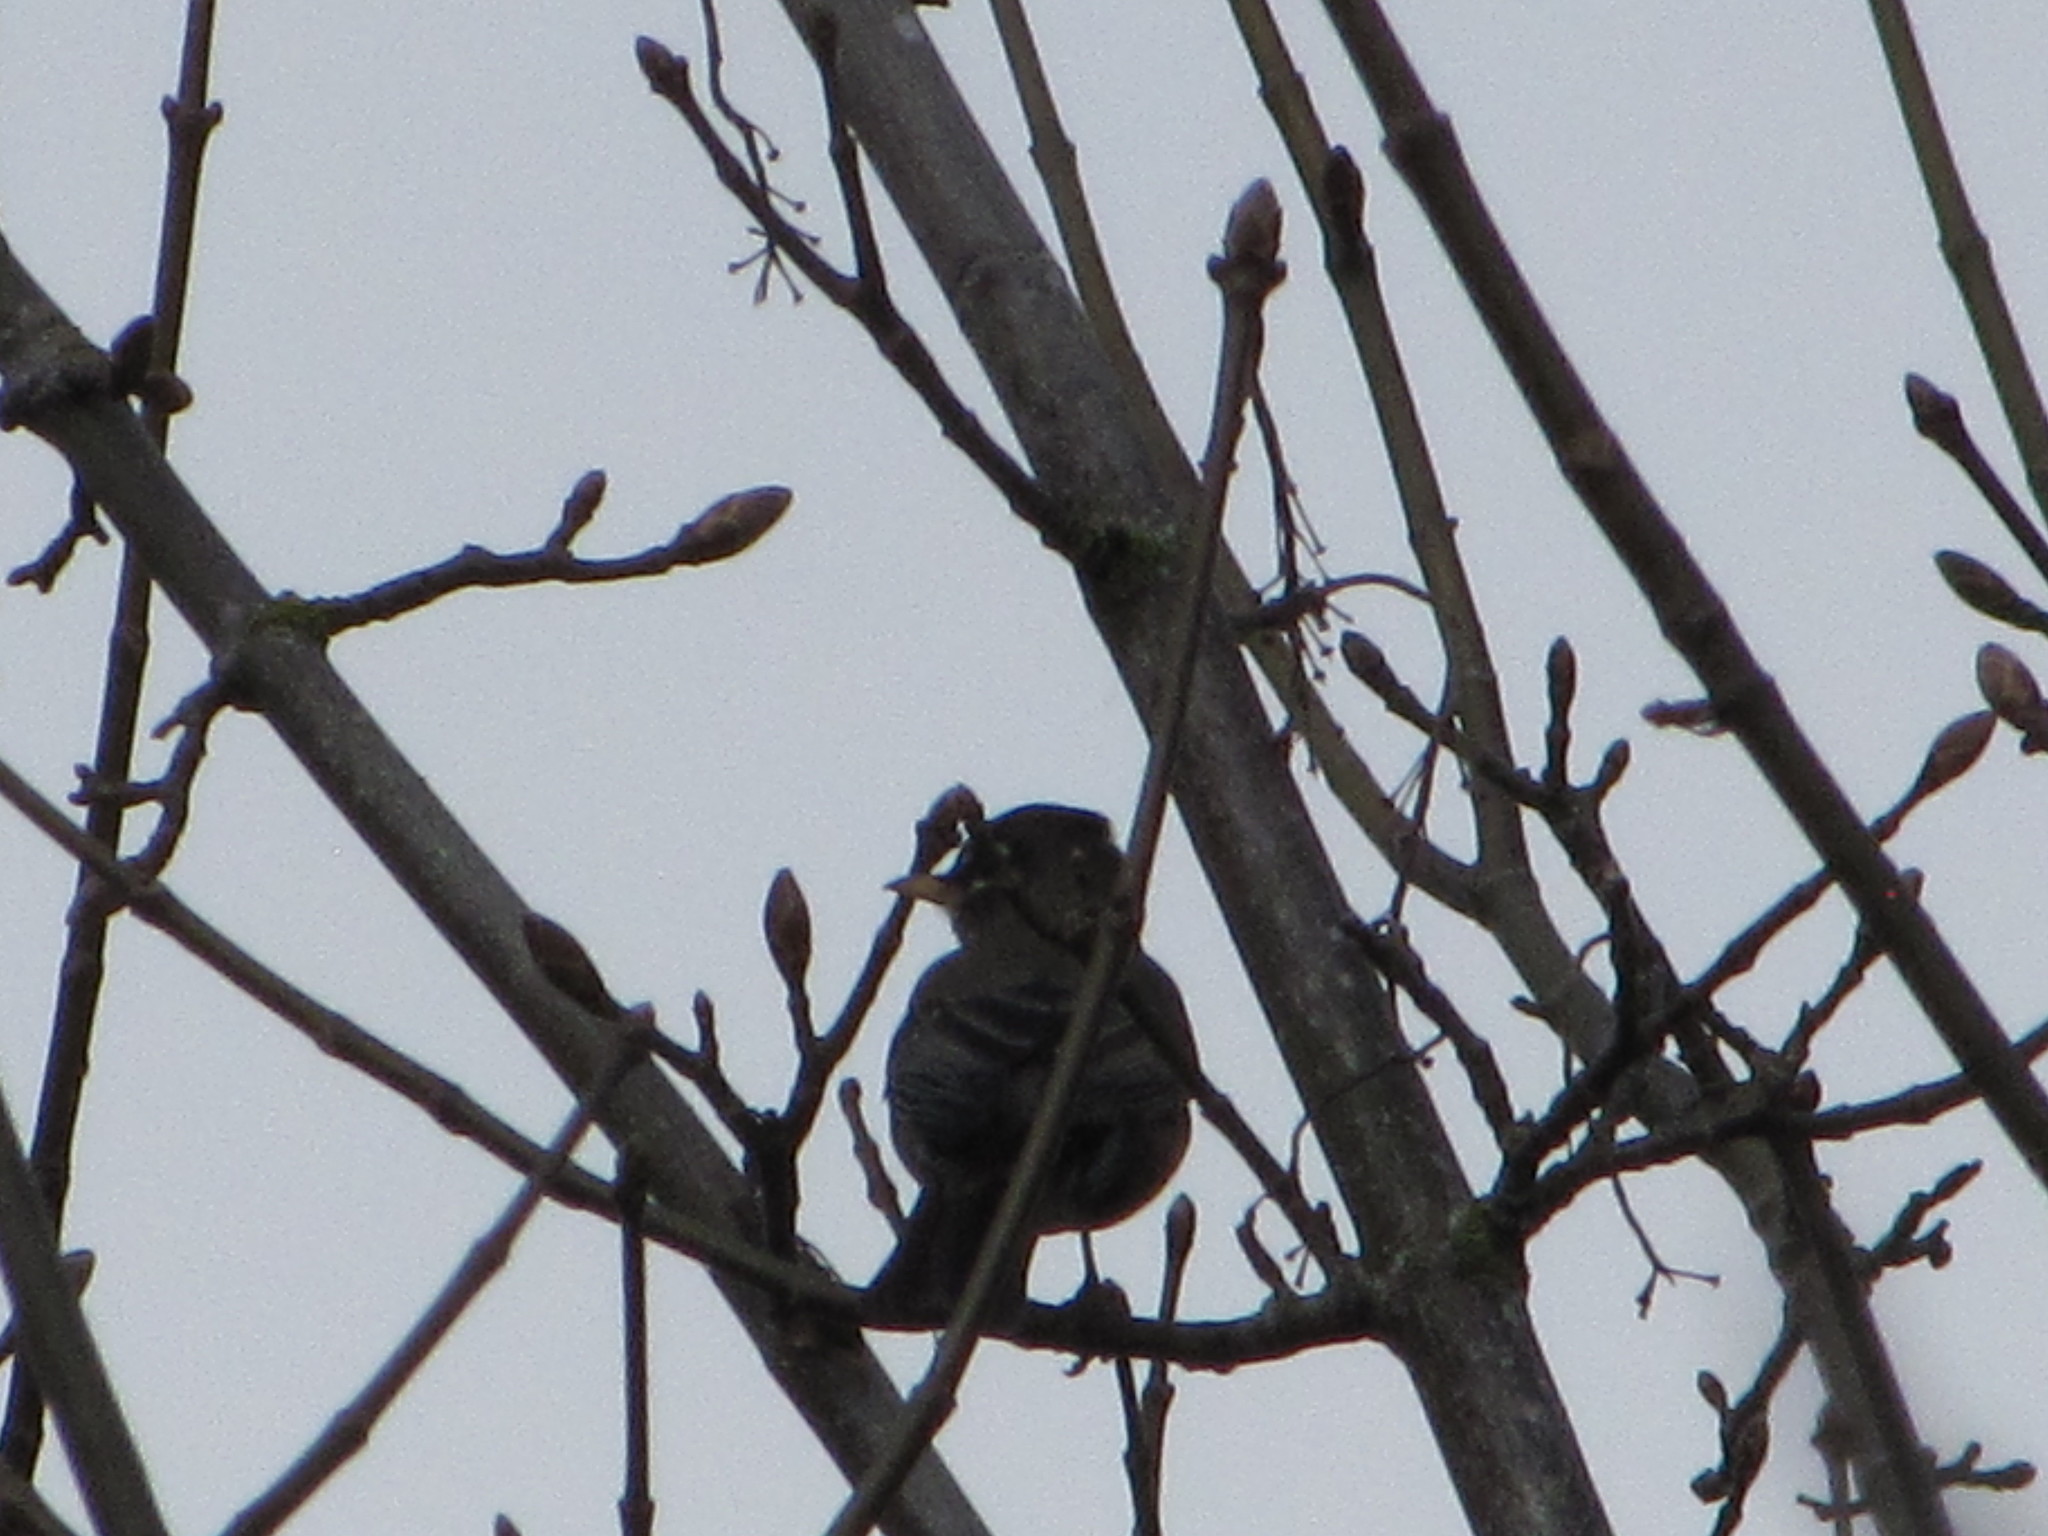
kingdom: Animalia
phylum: Chordata
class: Aves
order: Passeriformes
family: Turdidae
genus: Turdus
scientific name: Turdus migratorius
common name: American robin
